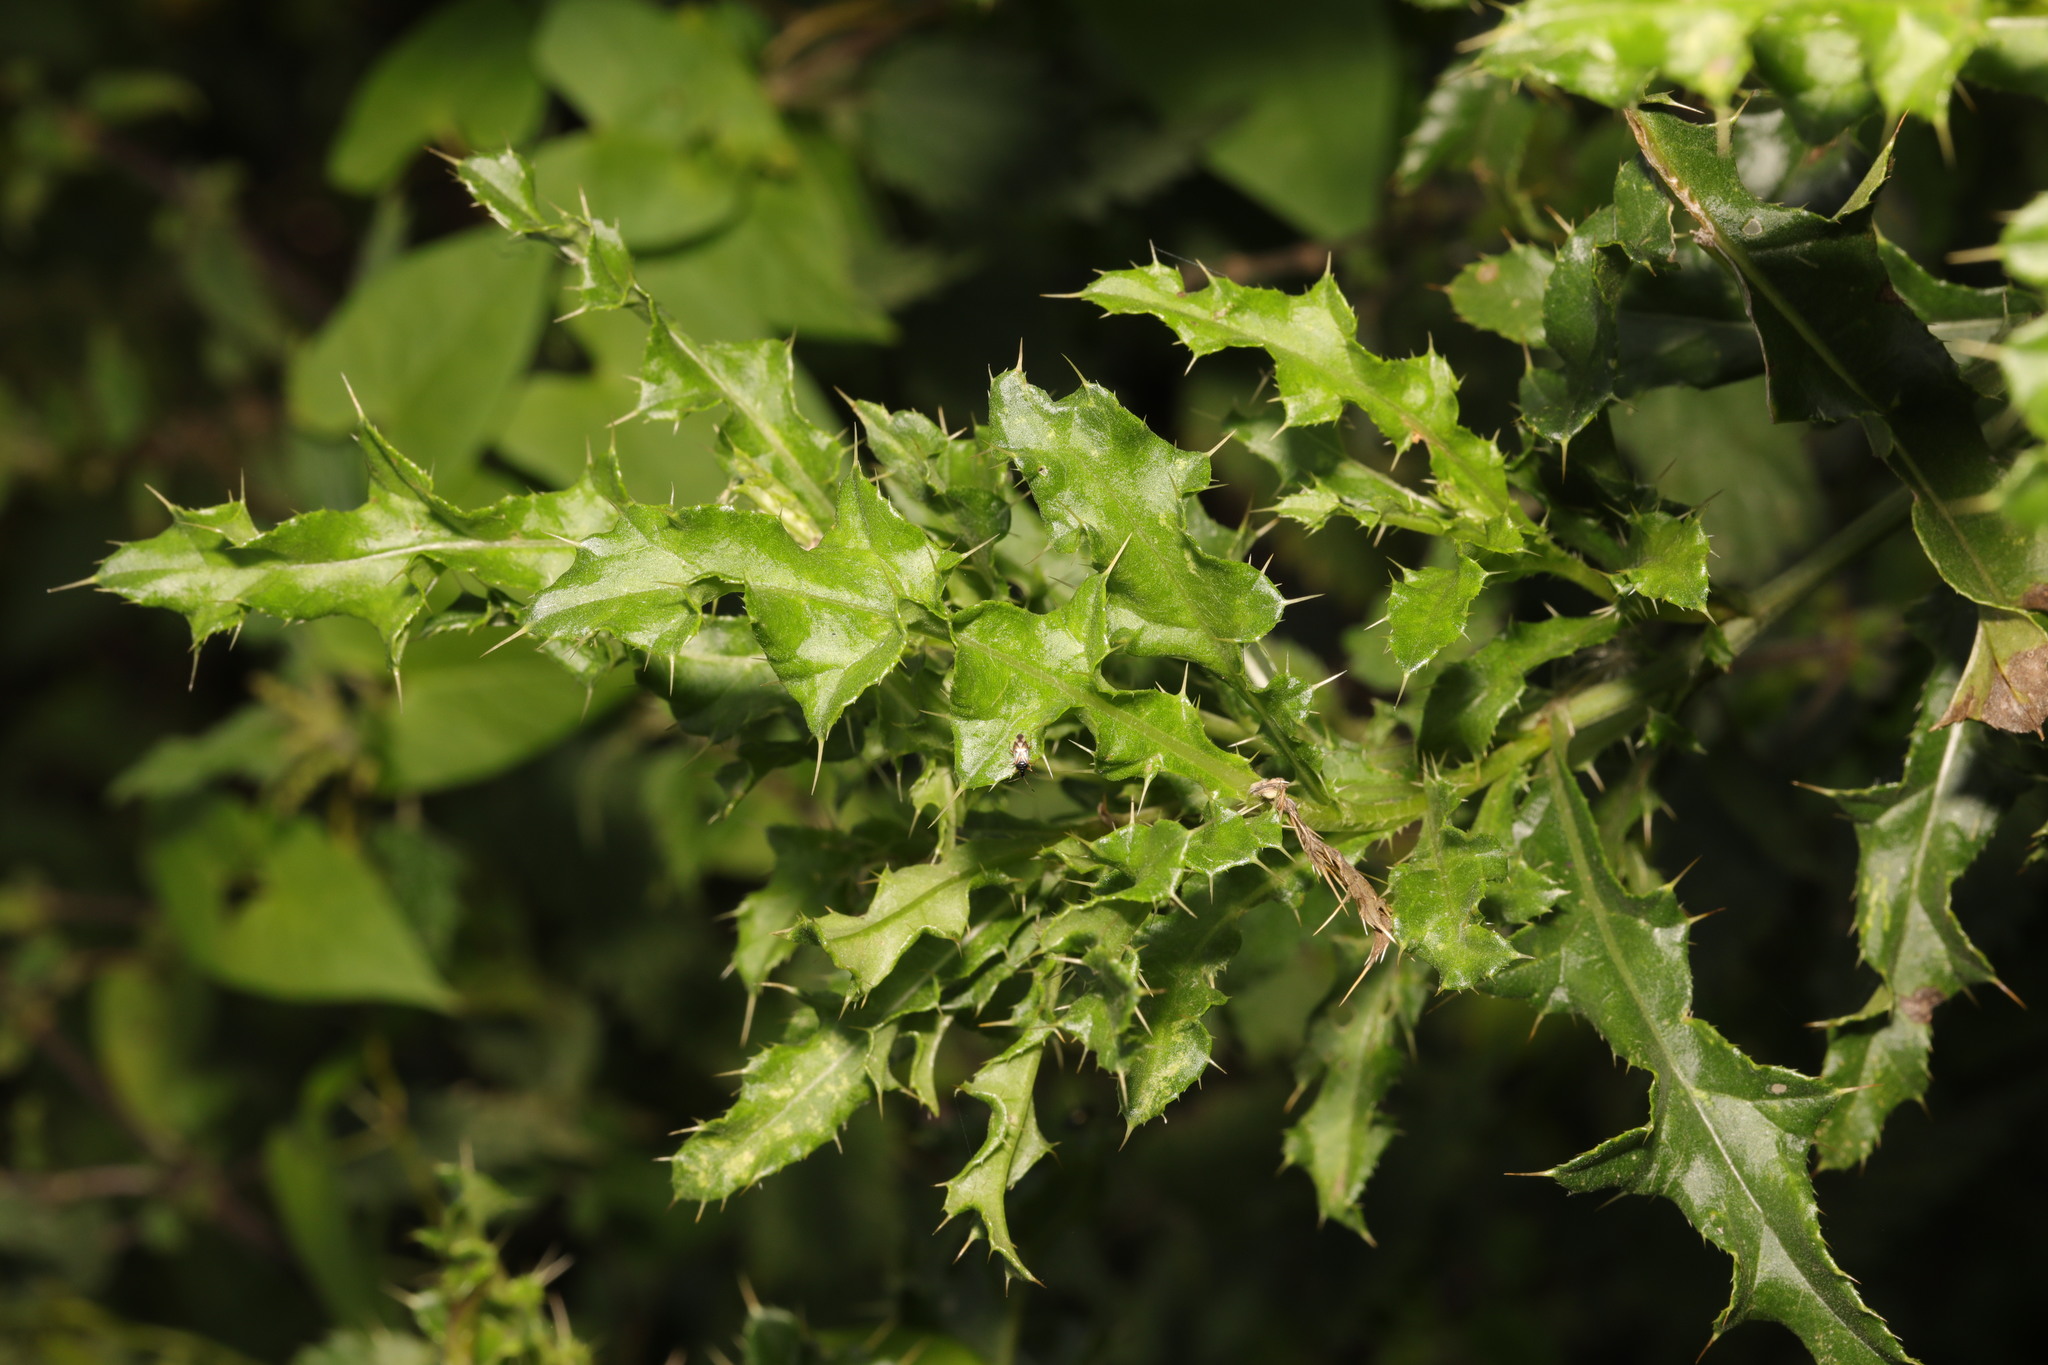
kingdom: Plantae
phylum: Tracheophyta
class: Magnoliopsida
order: Asterales
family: Asteraceae
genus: Cirsium
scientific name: Cirsium arvense
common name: Creeping thistle
